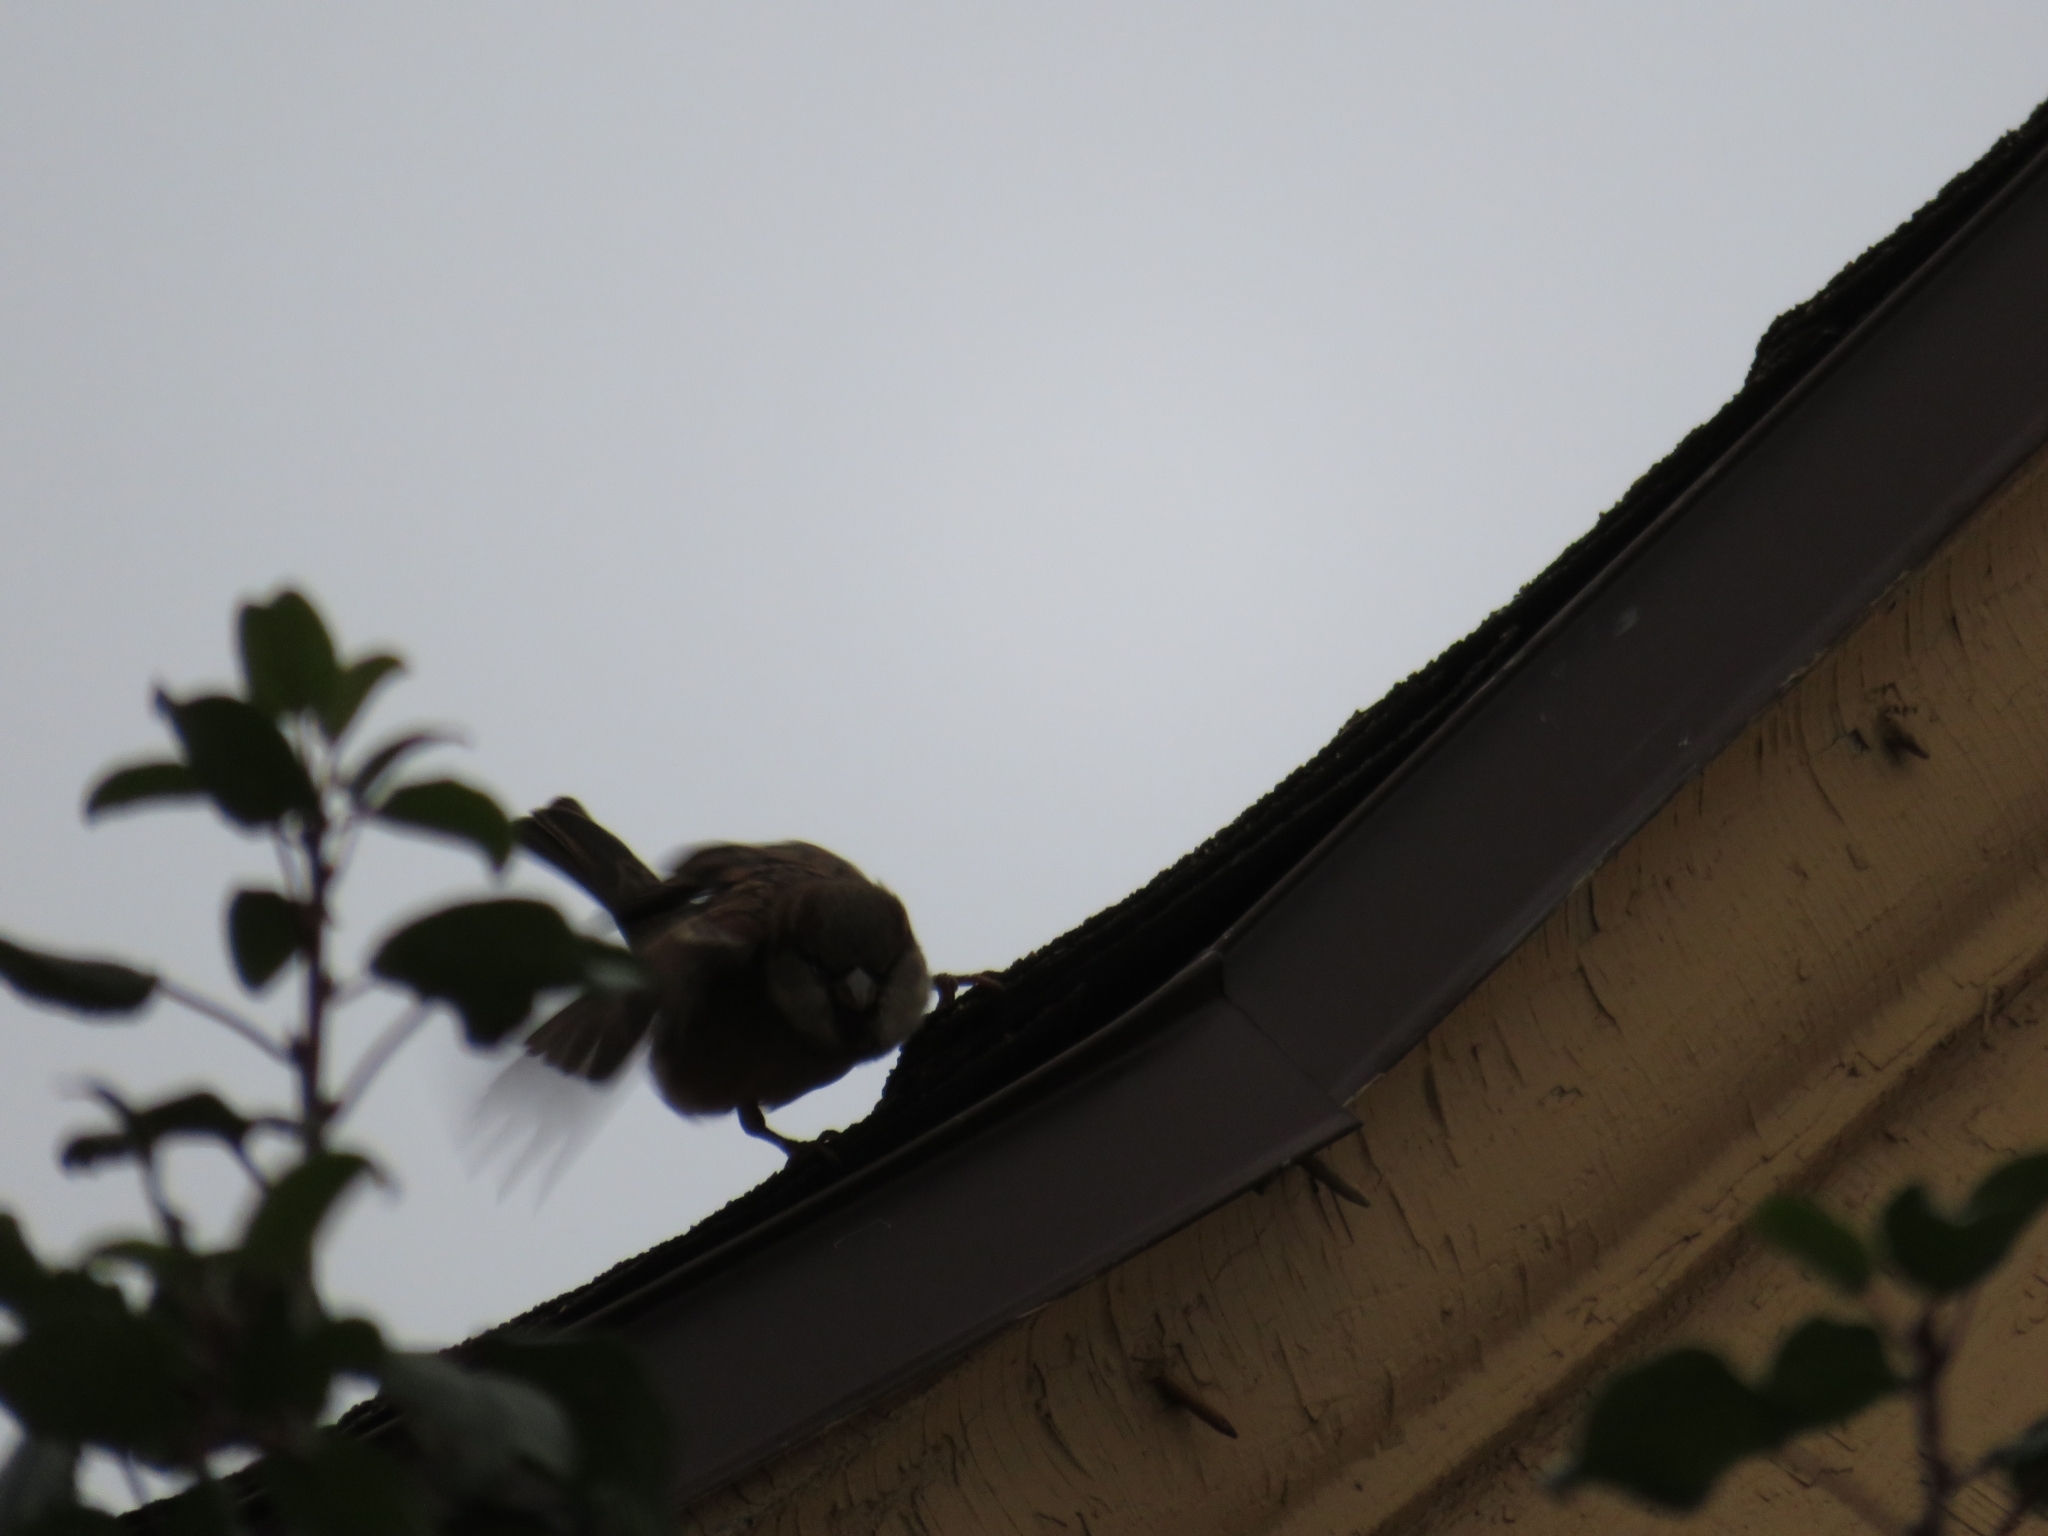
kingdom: Animalia
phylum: Chordata
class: Aves
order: Passeriformes
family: Passeridae
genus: Passer
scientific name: Passer domesticus
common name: House sparrow
